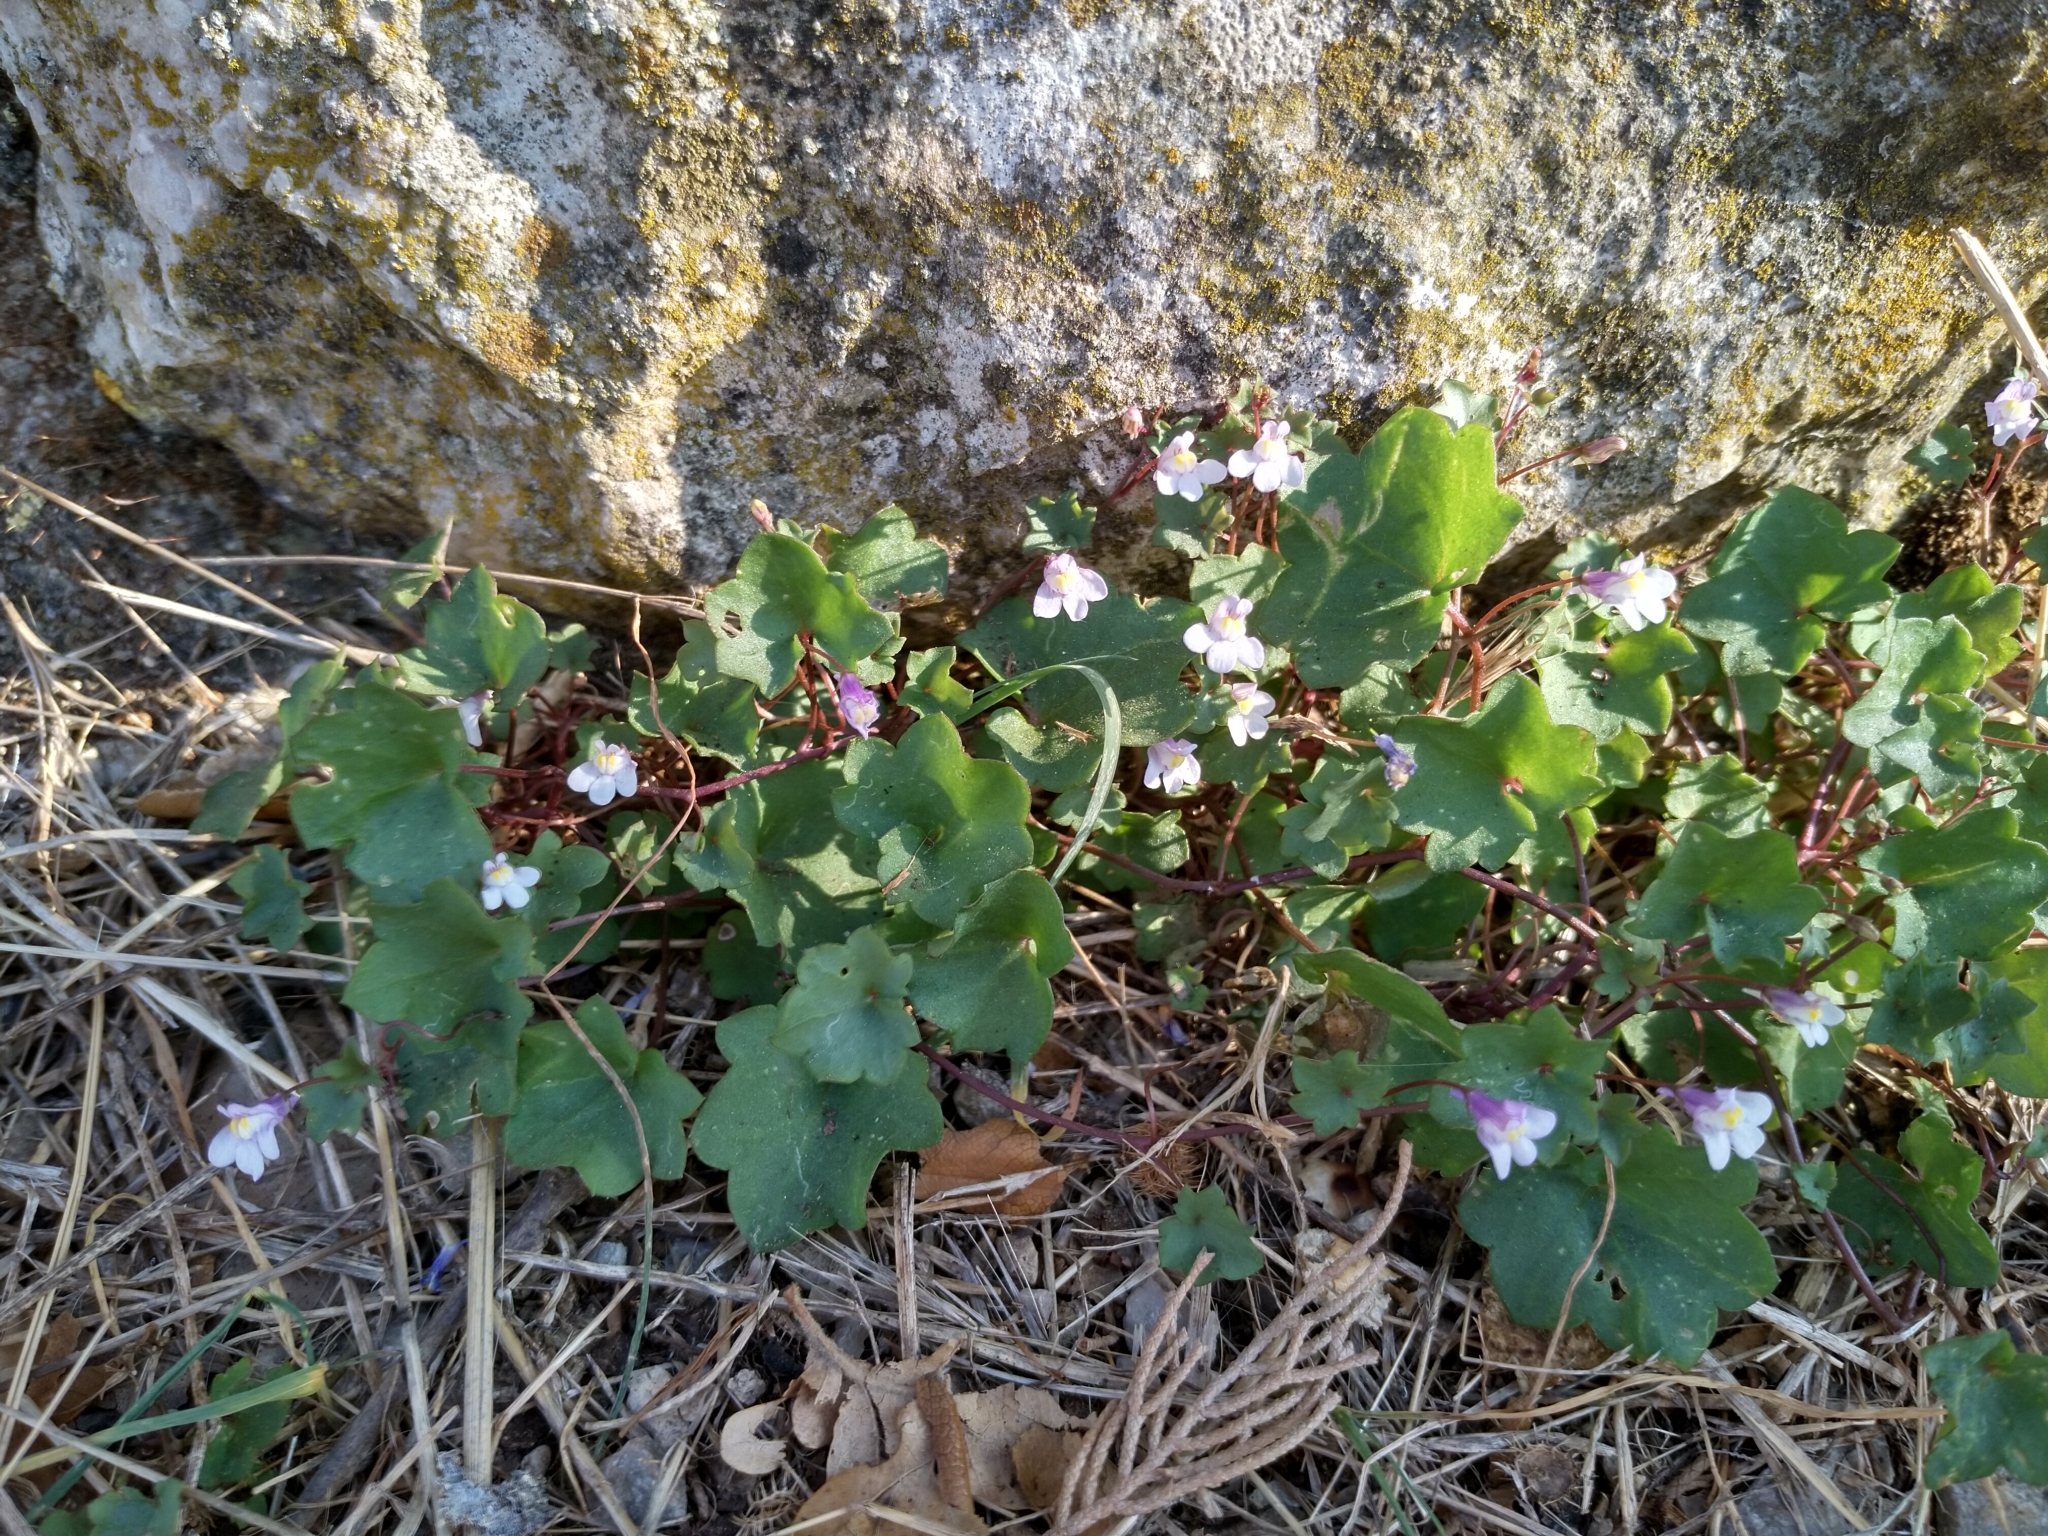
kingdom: Plantae
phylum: Tracheophyta
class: Magnoliopsida
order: Lamiales
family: Plantaginaceae
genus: Cymbalaria
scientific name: Cymbalaria muralis
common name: Ivy-leaved toadflax
